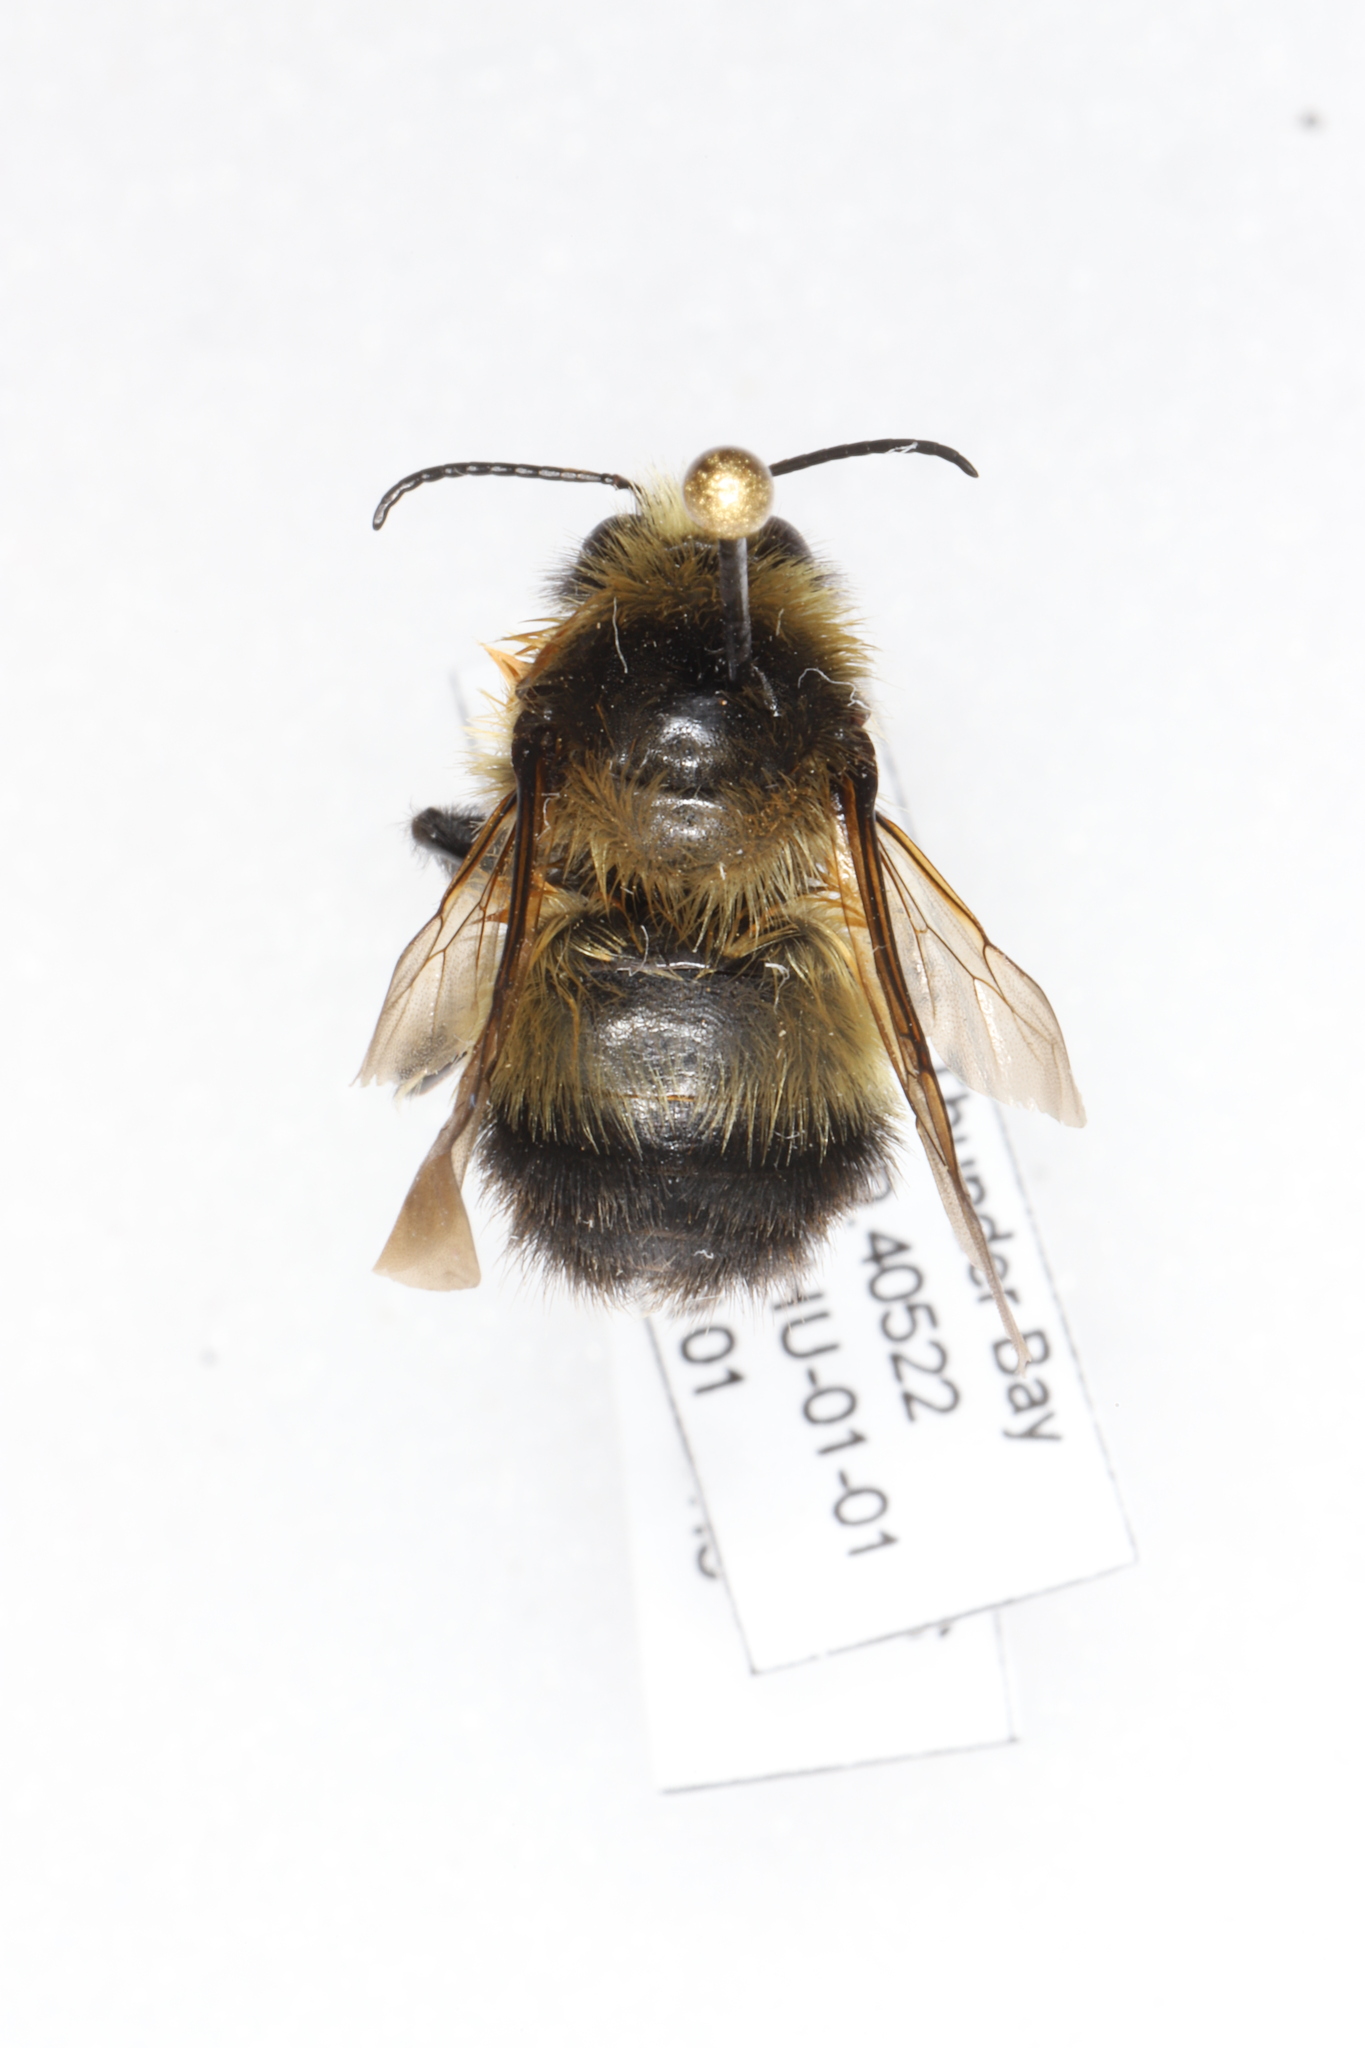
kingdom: Animalia
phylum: Arthropoda
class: Insecta
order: Hymenoptera
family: Apidae
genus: Bombus
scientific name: Bombus rufocinctus
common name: Red-belted bumble bee
